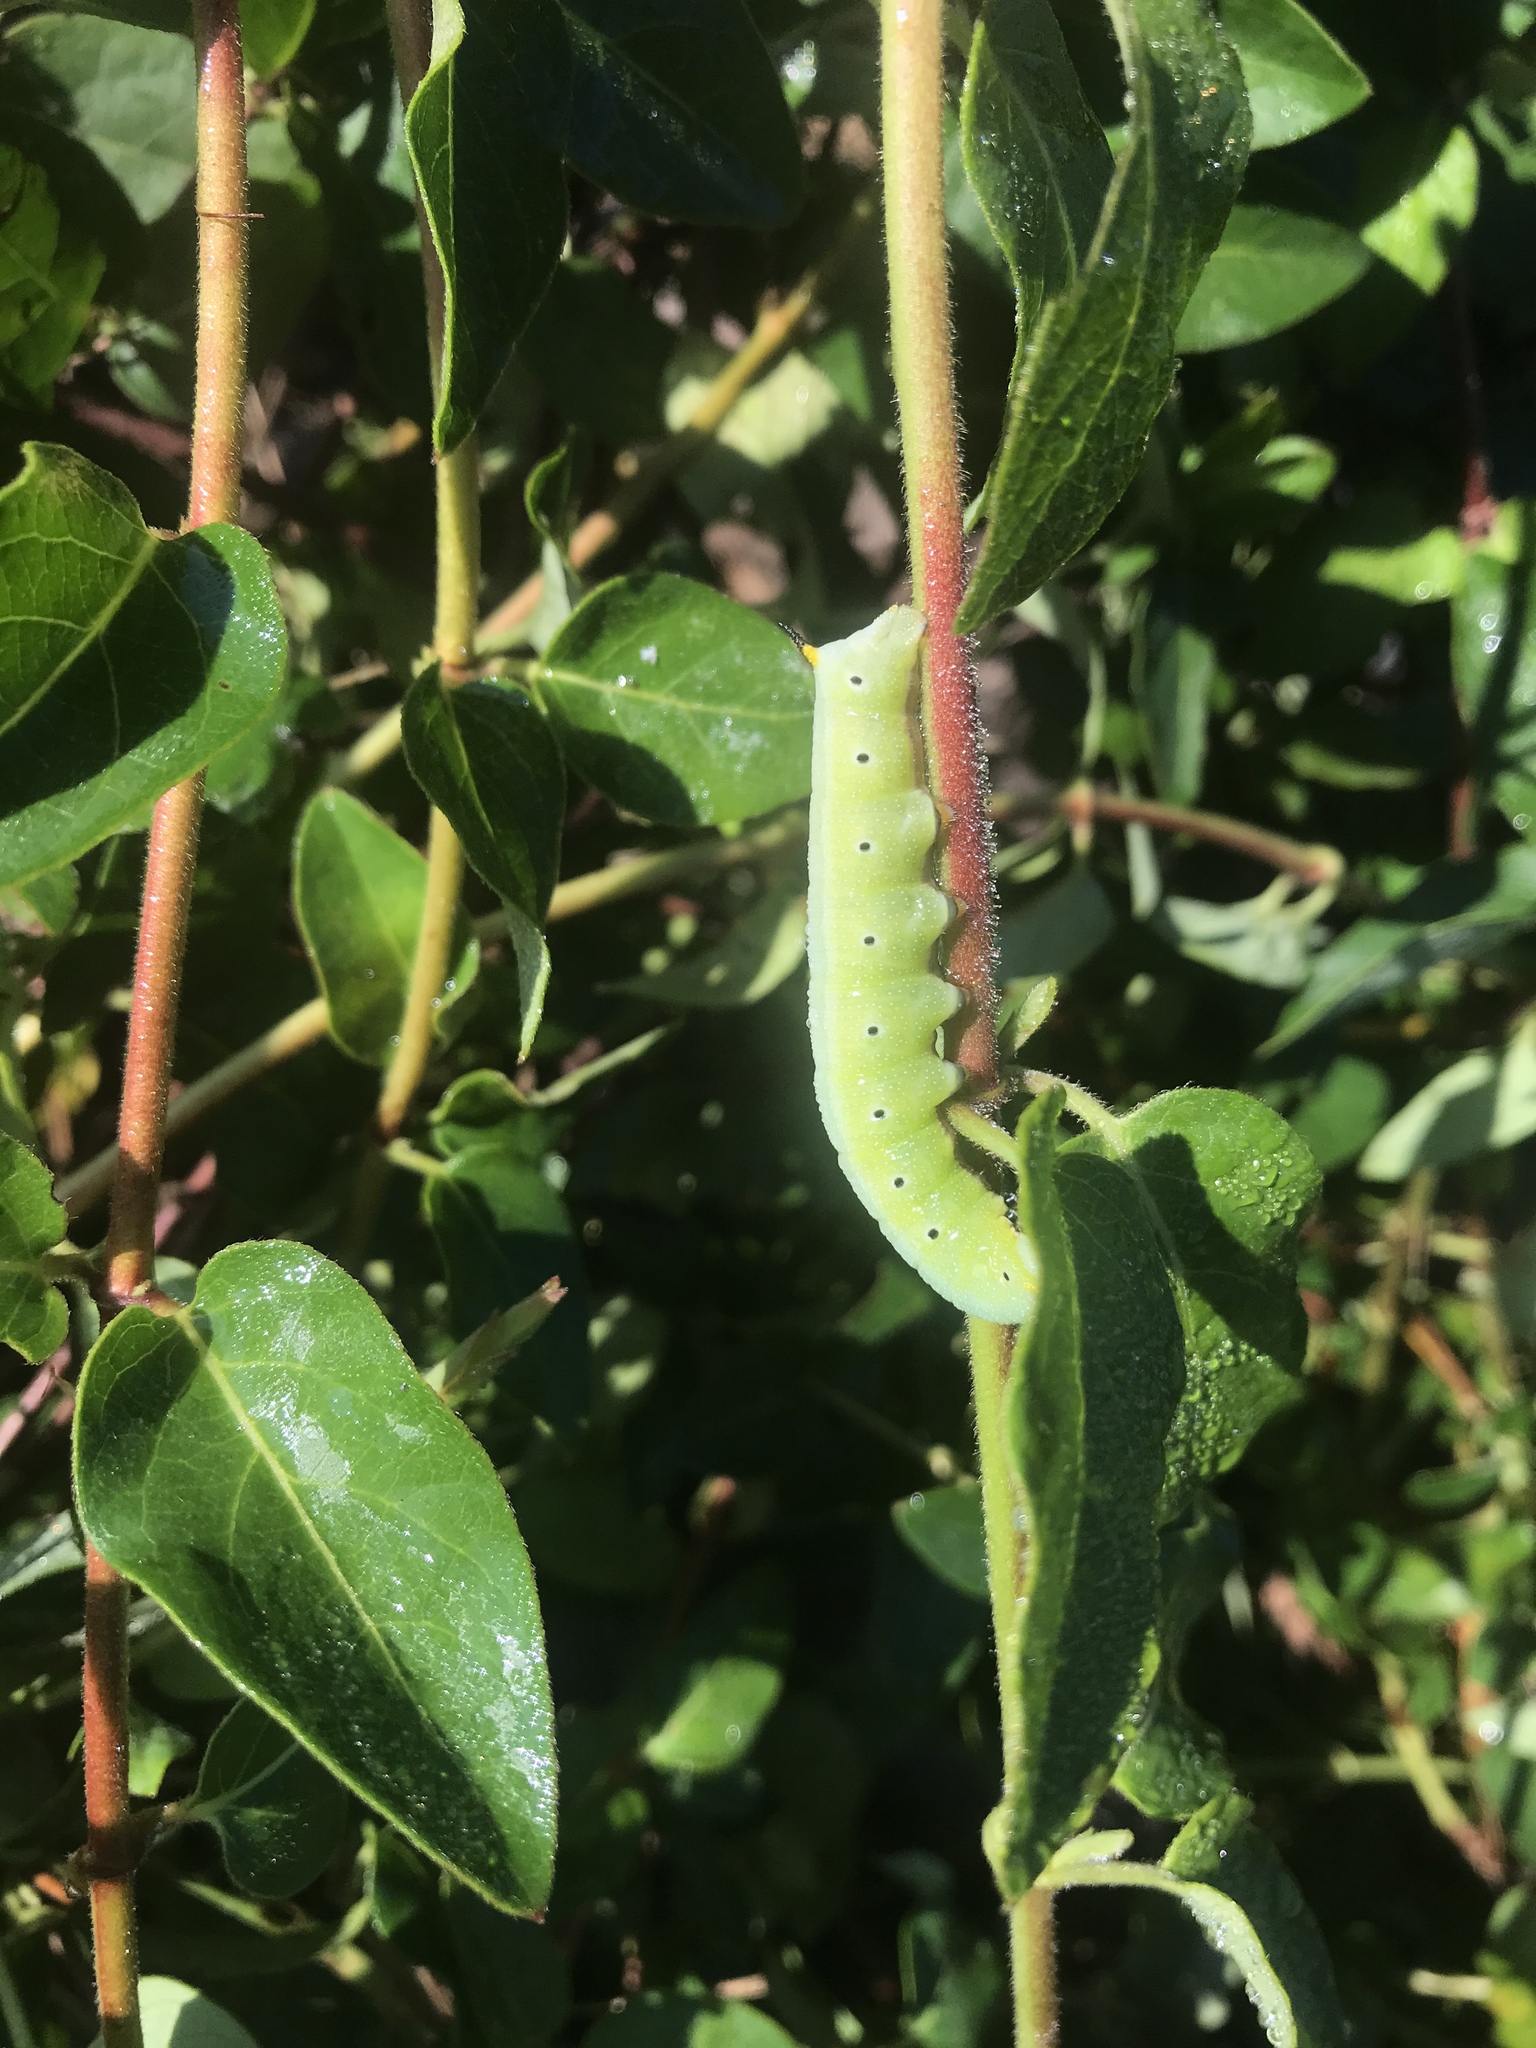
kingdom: Animalia
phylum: Arthropoda
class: Insecta
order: Lepidoptera
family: Sphingidae
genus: Hemaris
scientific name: Hemaris diffinis
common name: Bumblebee moth
